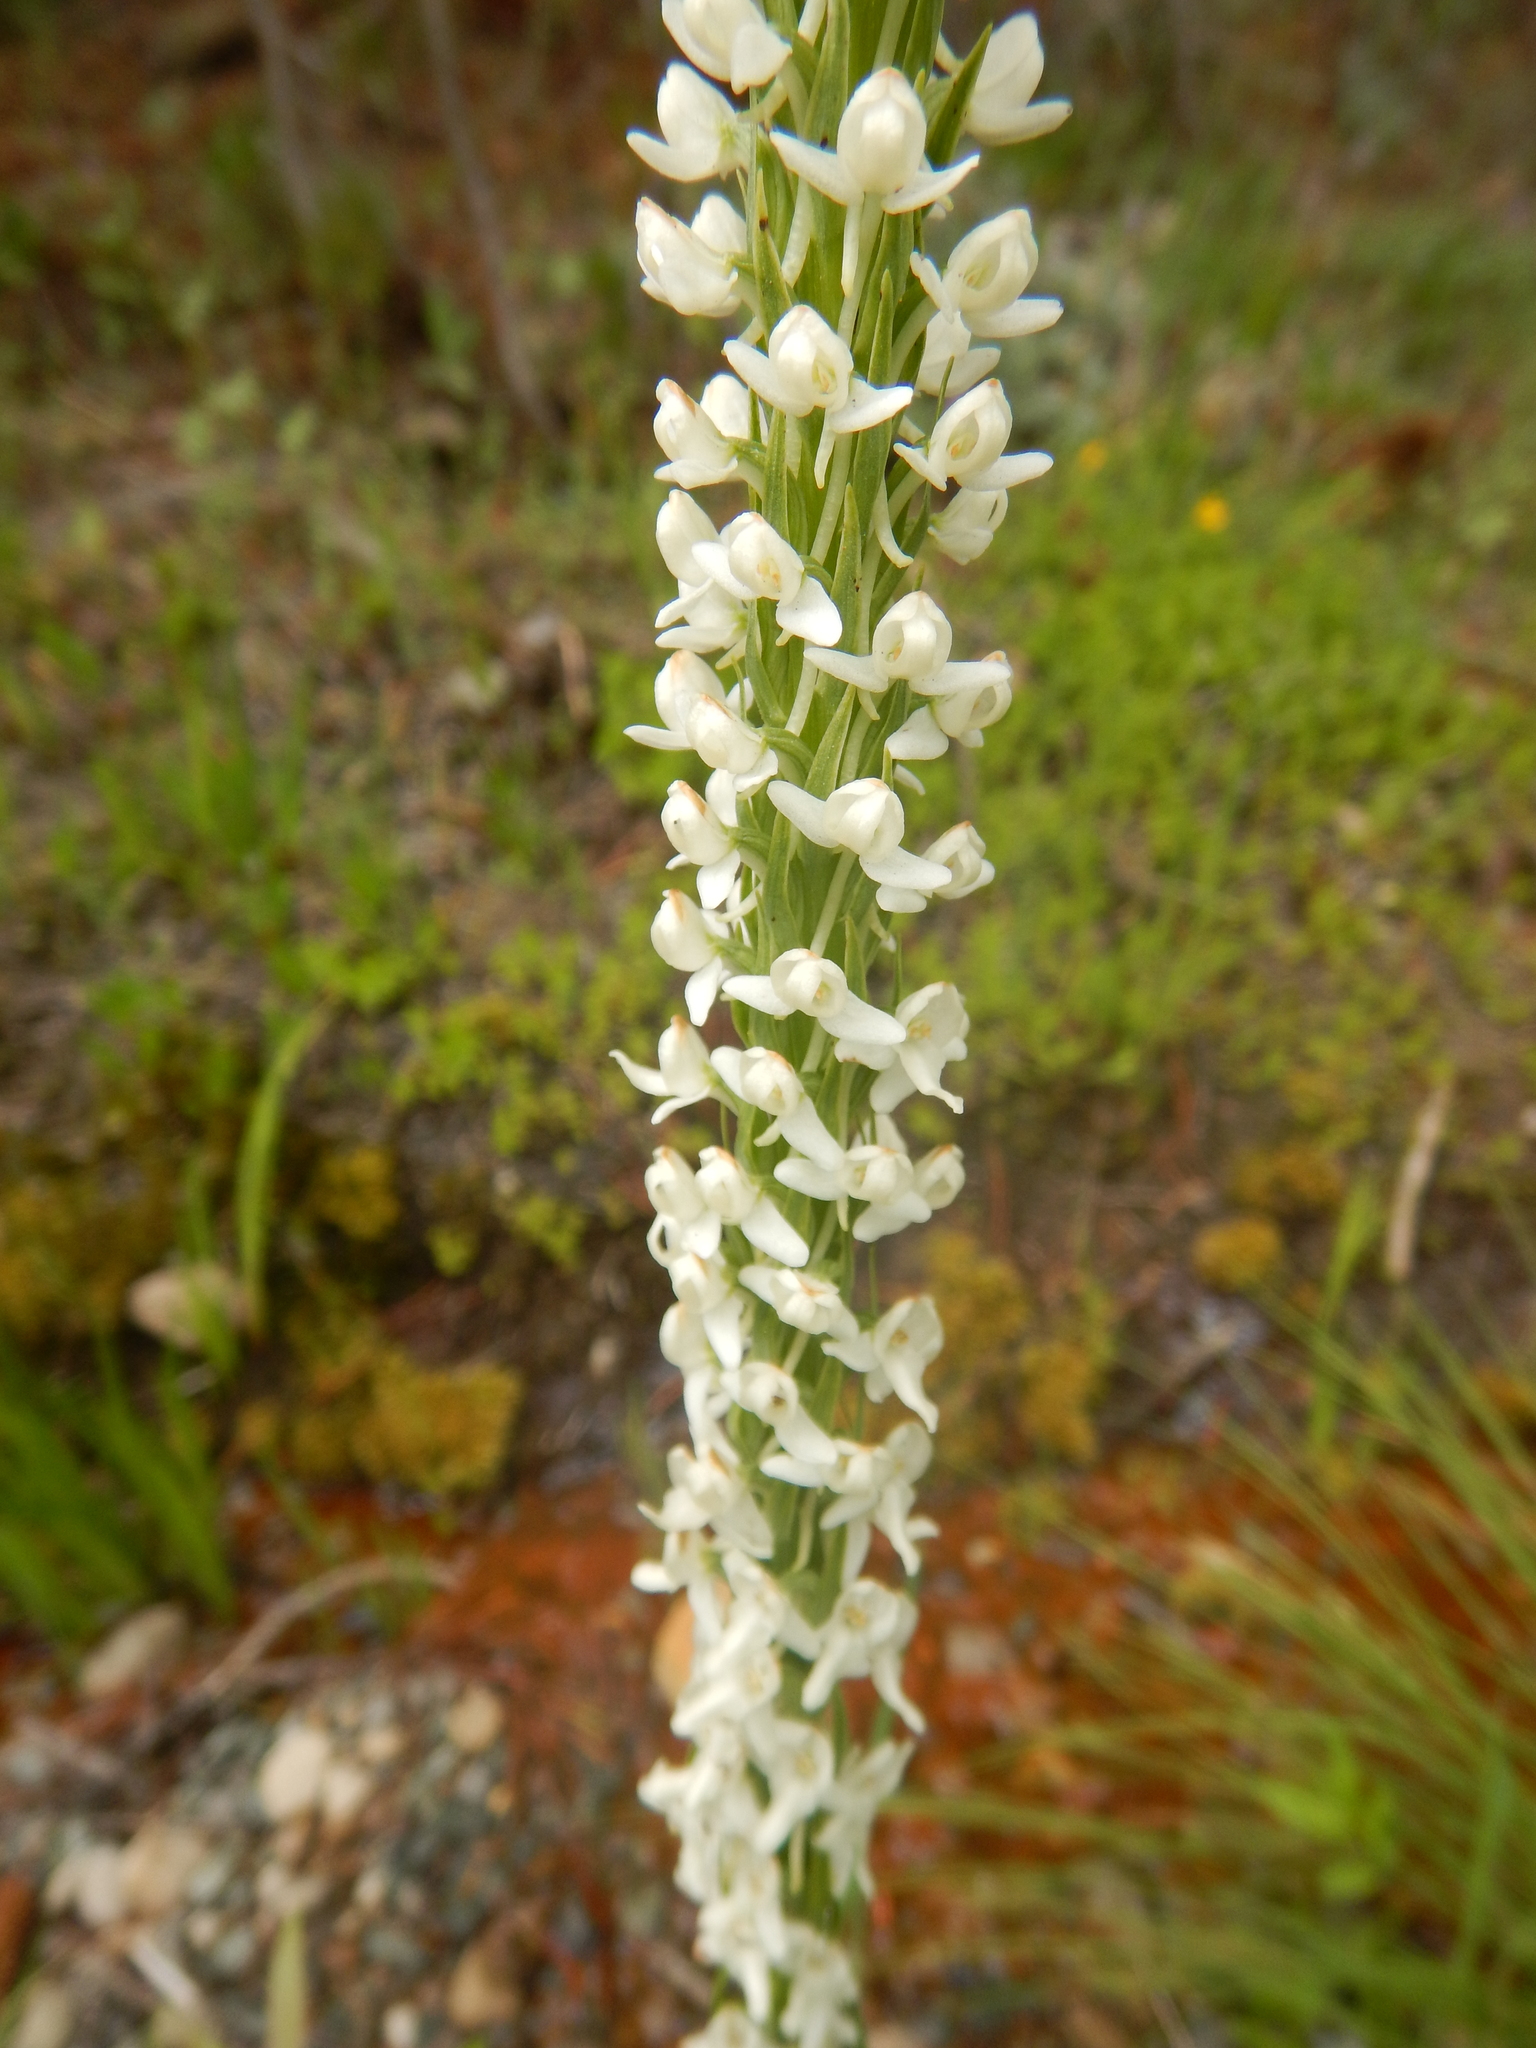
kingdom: Plantae
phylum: Tracheophyta
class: Liliopsida
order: Asparagales
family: Orchidaceae
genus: Platanthera
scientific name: Platanthera dilatata
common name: Bog candles
